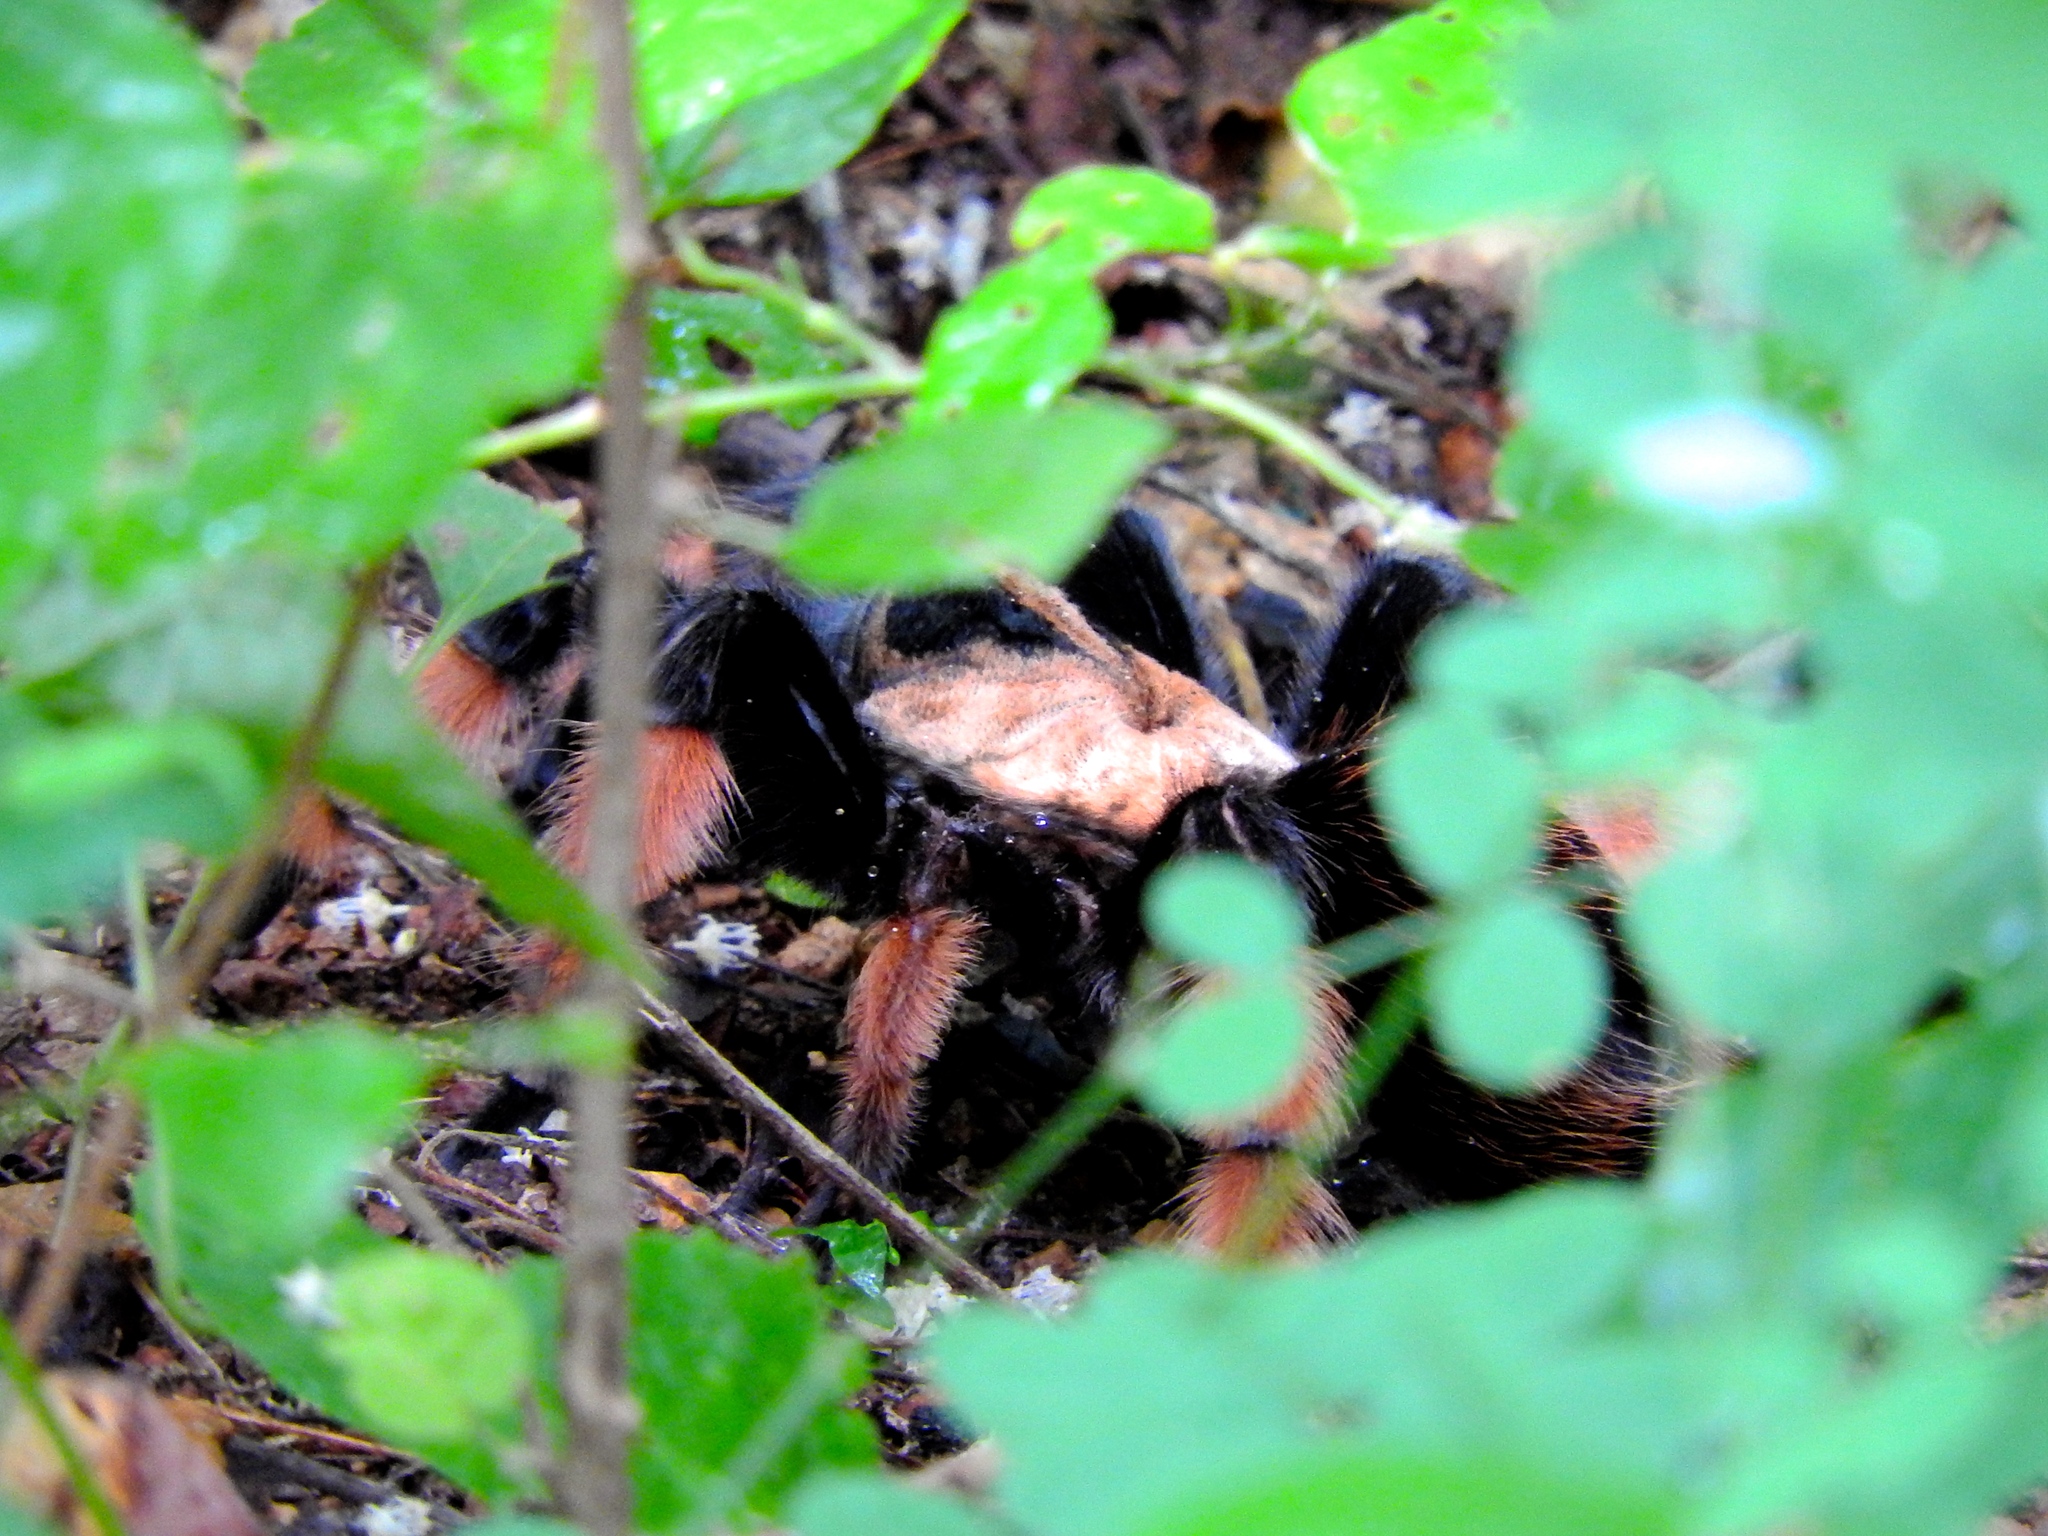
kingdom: Animalia
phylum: Arthropoda
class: Arachnida
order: Araneae
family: Theraphosidae
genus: Brachypelma
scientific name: Brachypelma emilia
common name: Mexican redleg
